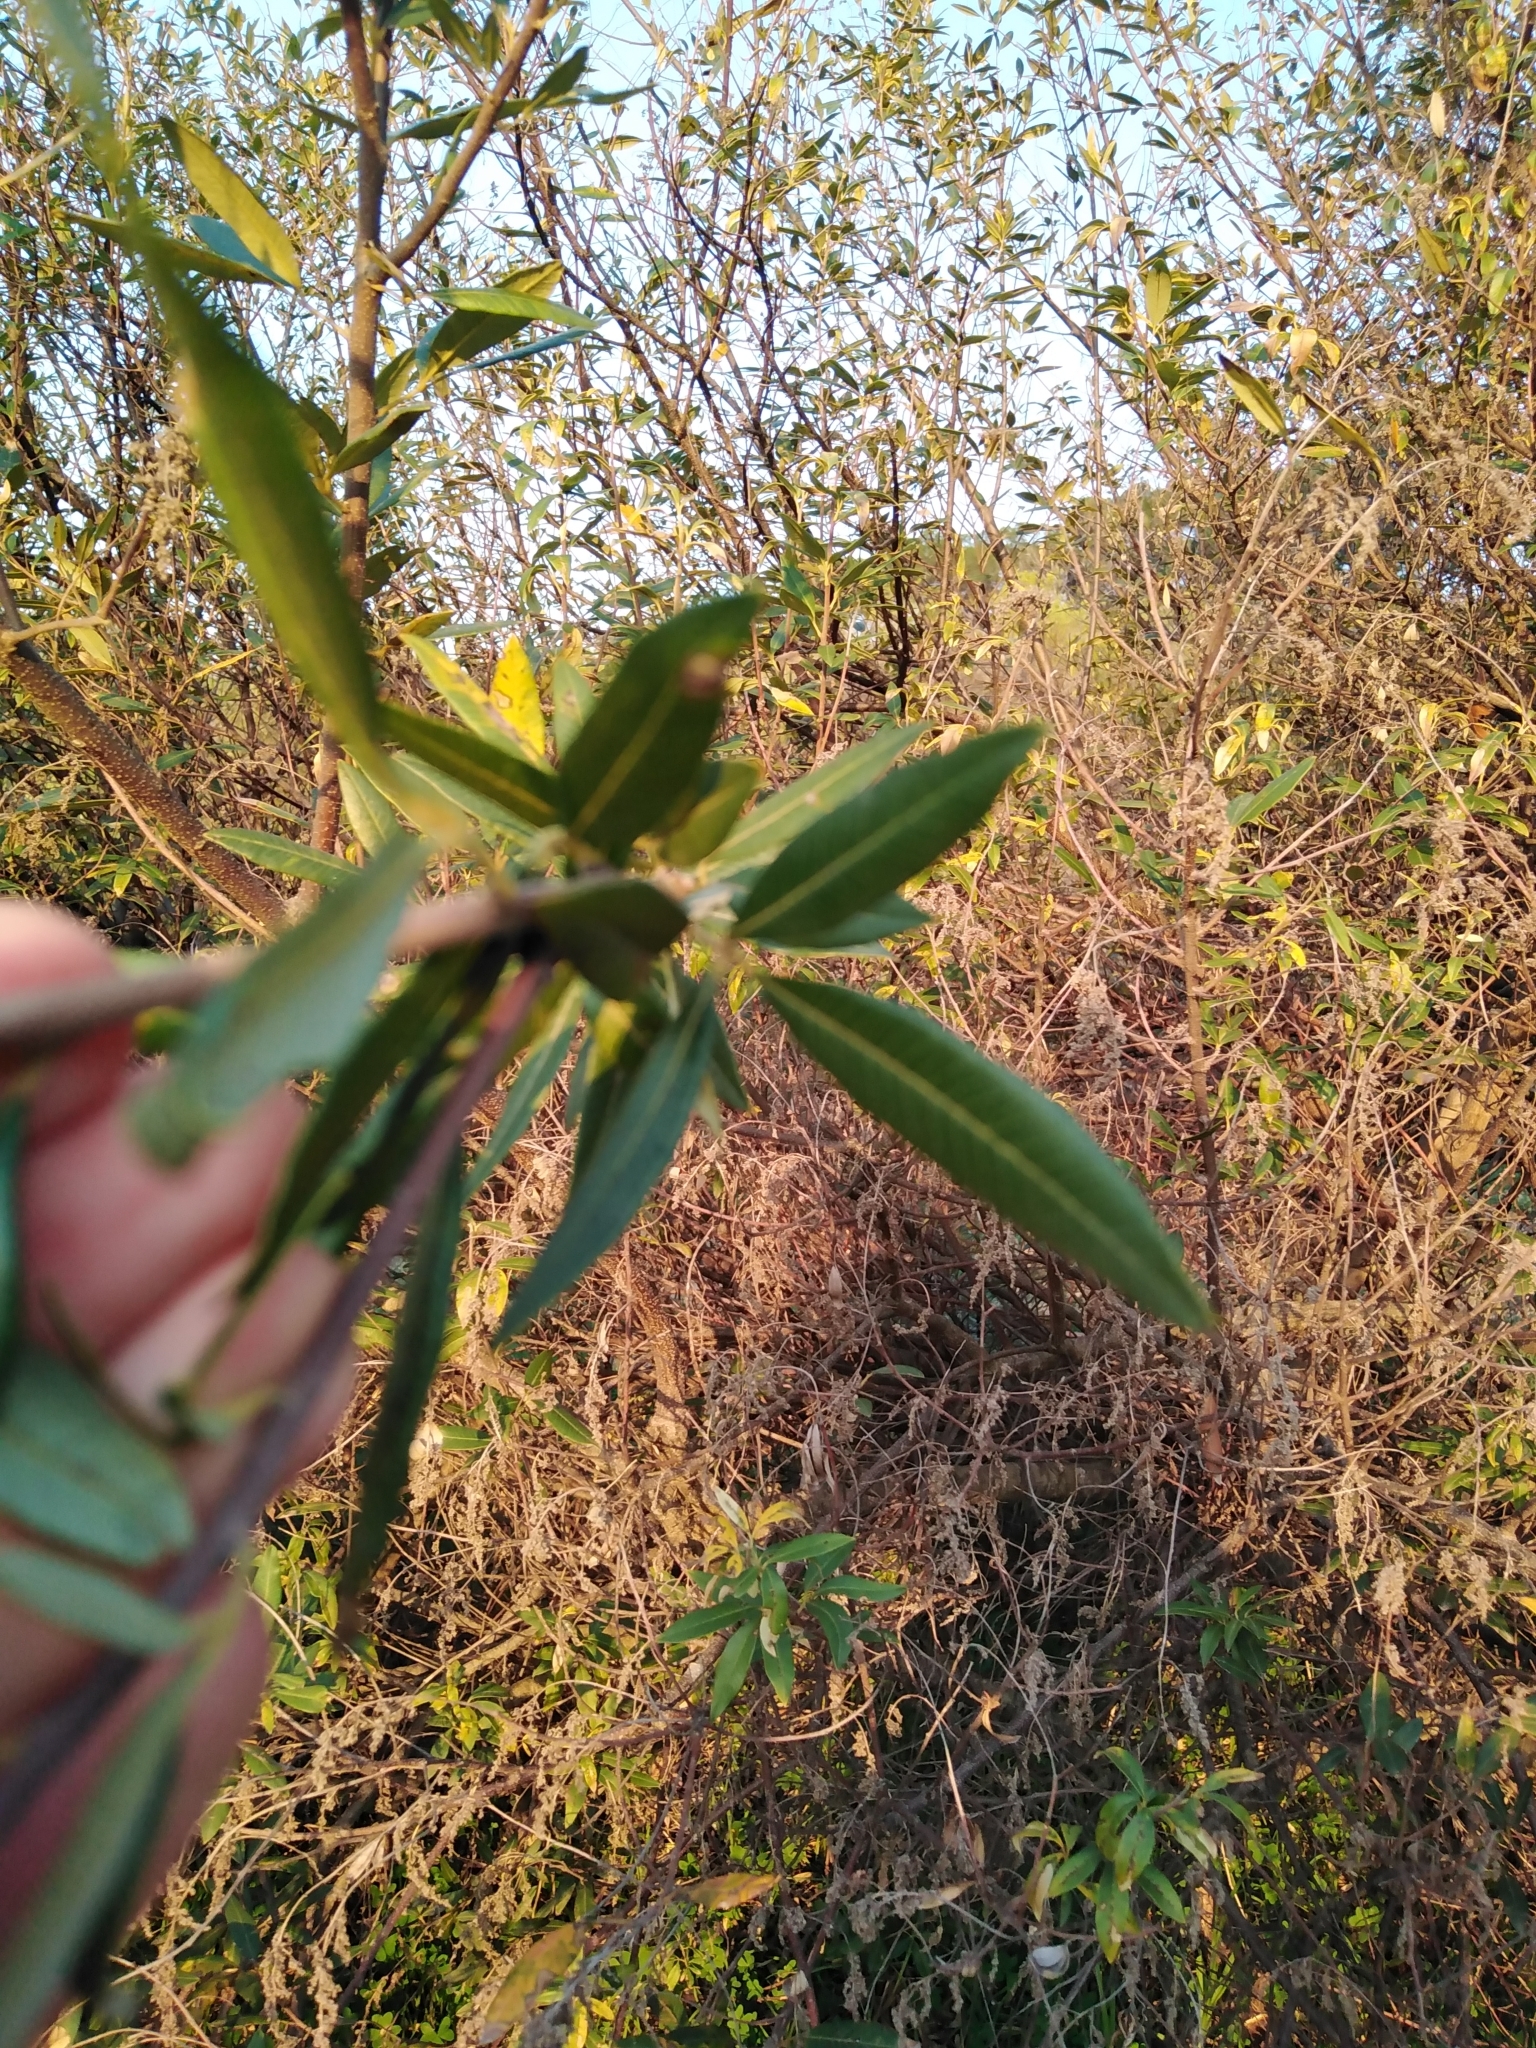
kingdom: Plantae
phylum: Tracheophyta
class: Magnoliopsida
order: Sapindales
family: Anacardiaceae
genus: Searsia
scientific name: Searsia angustifolia
